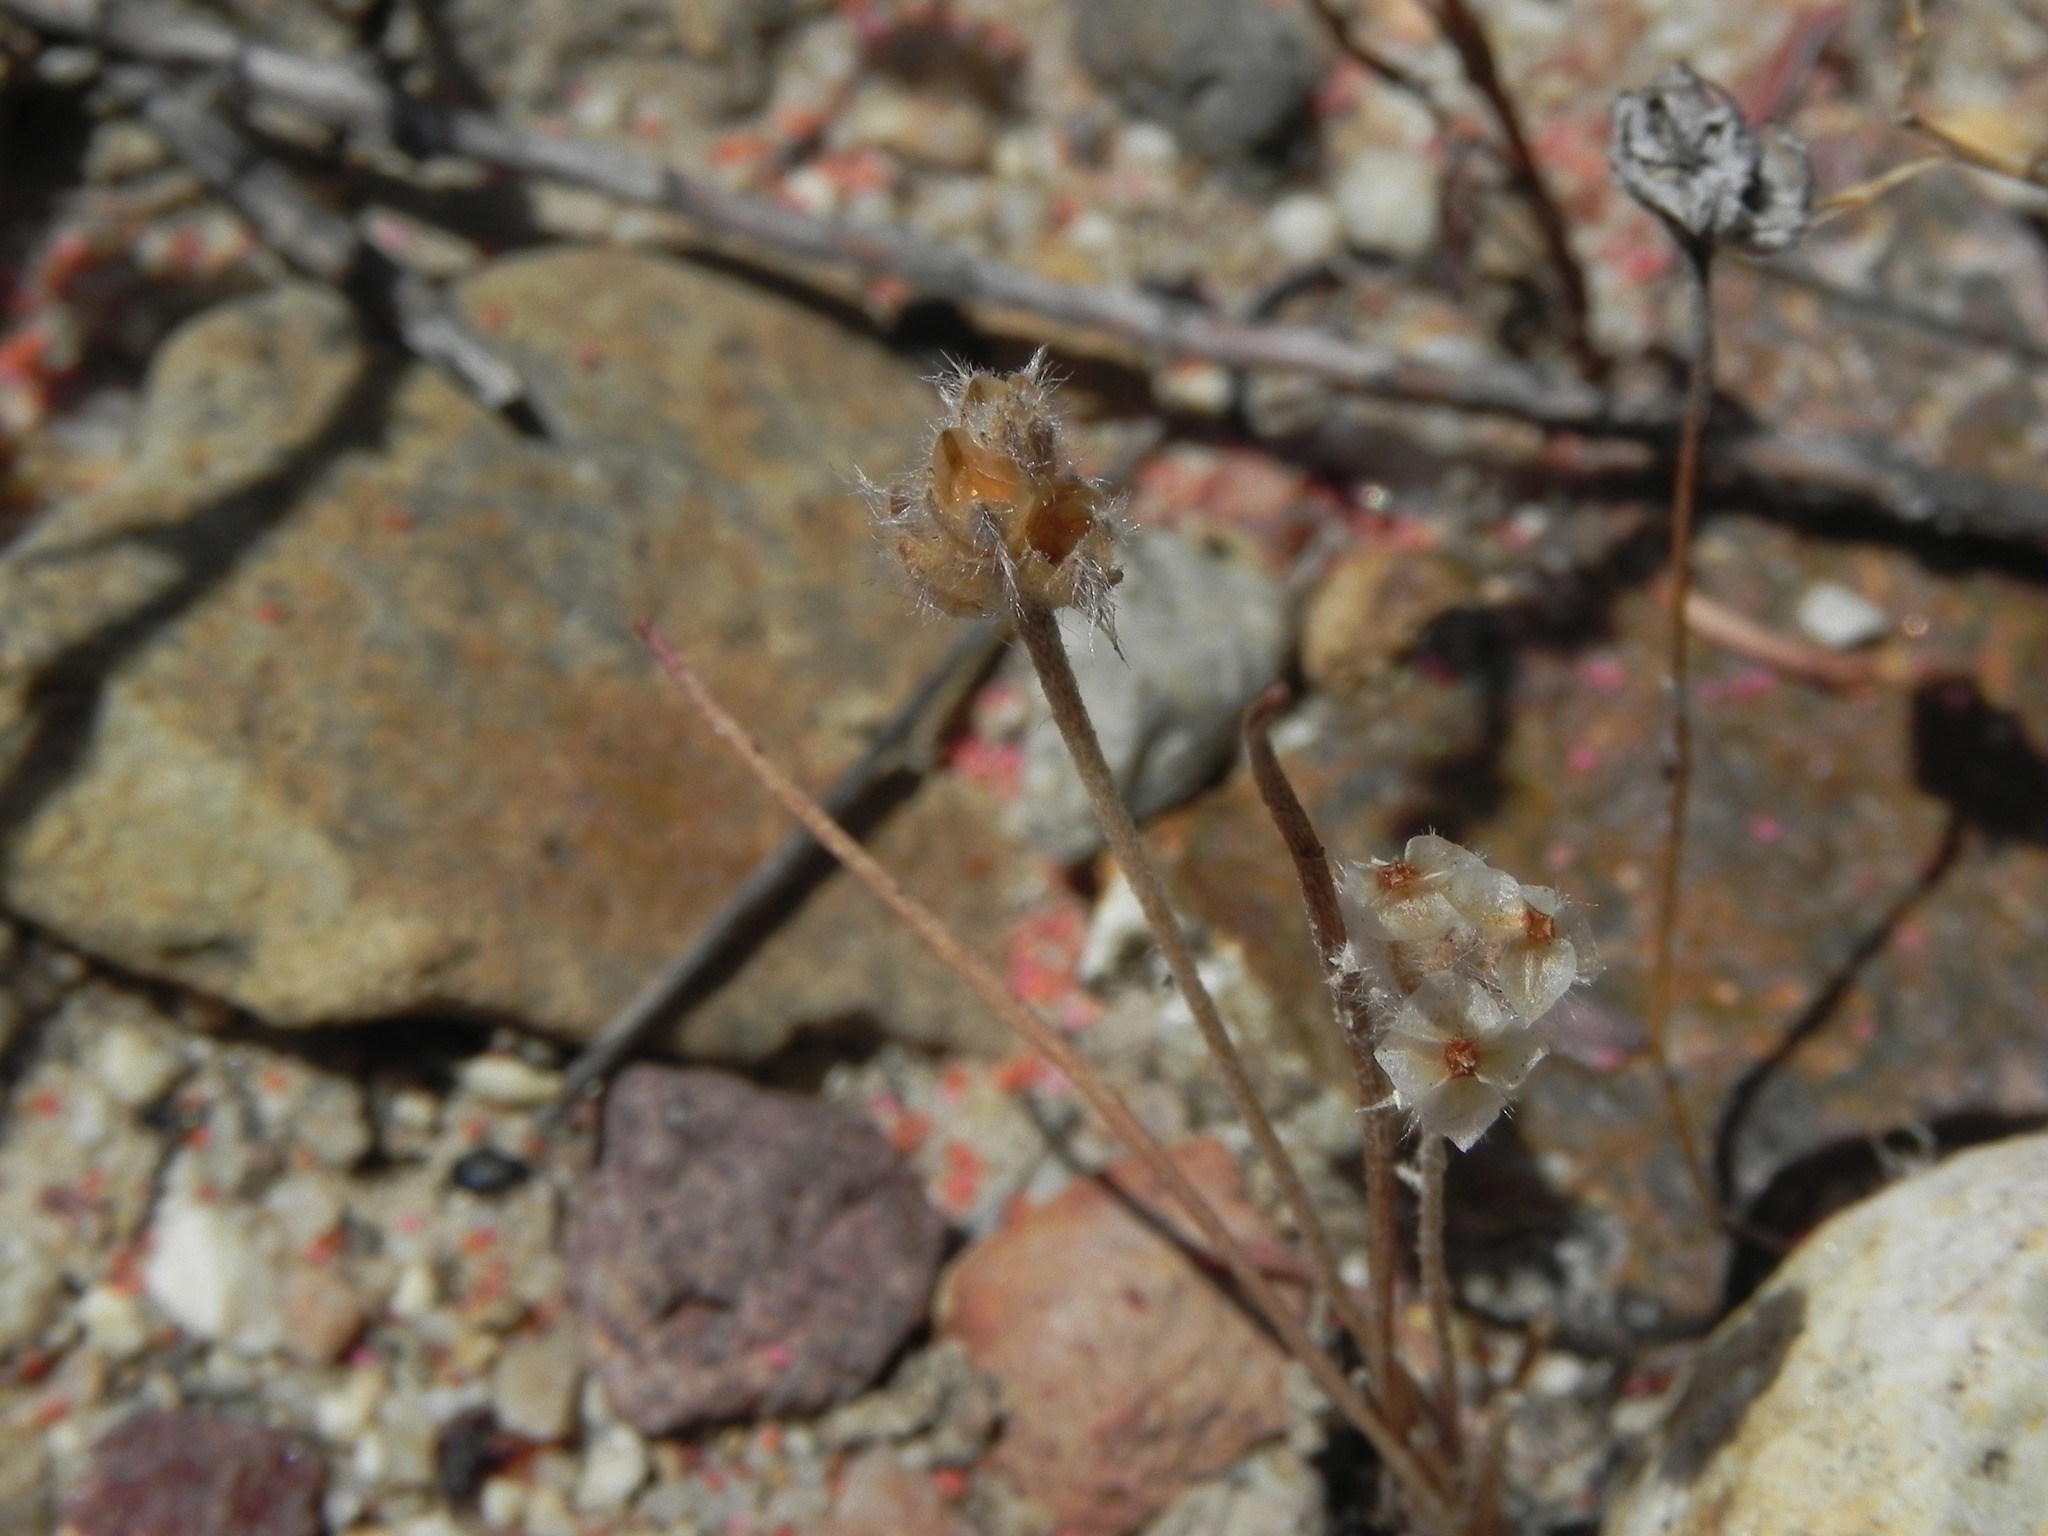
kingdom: Plantae
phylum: Tracheophyta
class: Magnoliopsida
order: Lamiales
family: Plantaginaceae
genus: Plantago
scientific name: Plantago erecta
